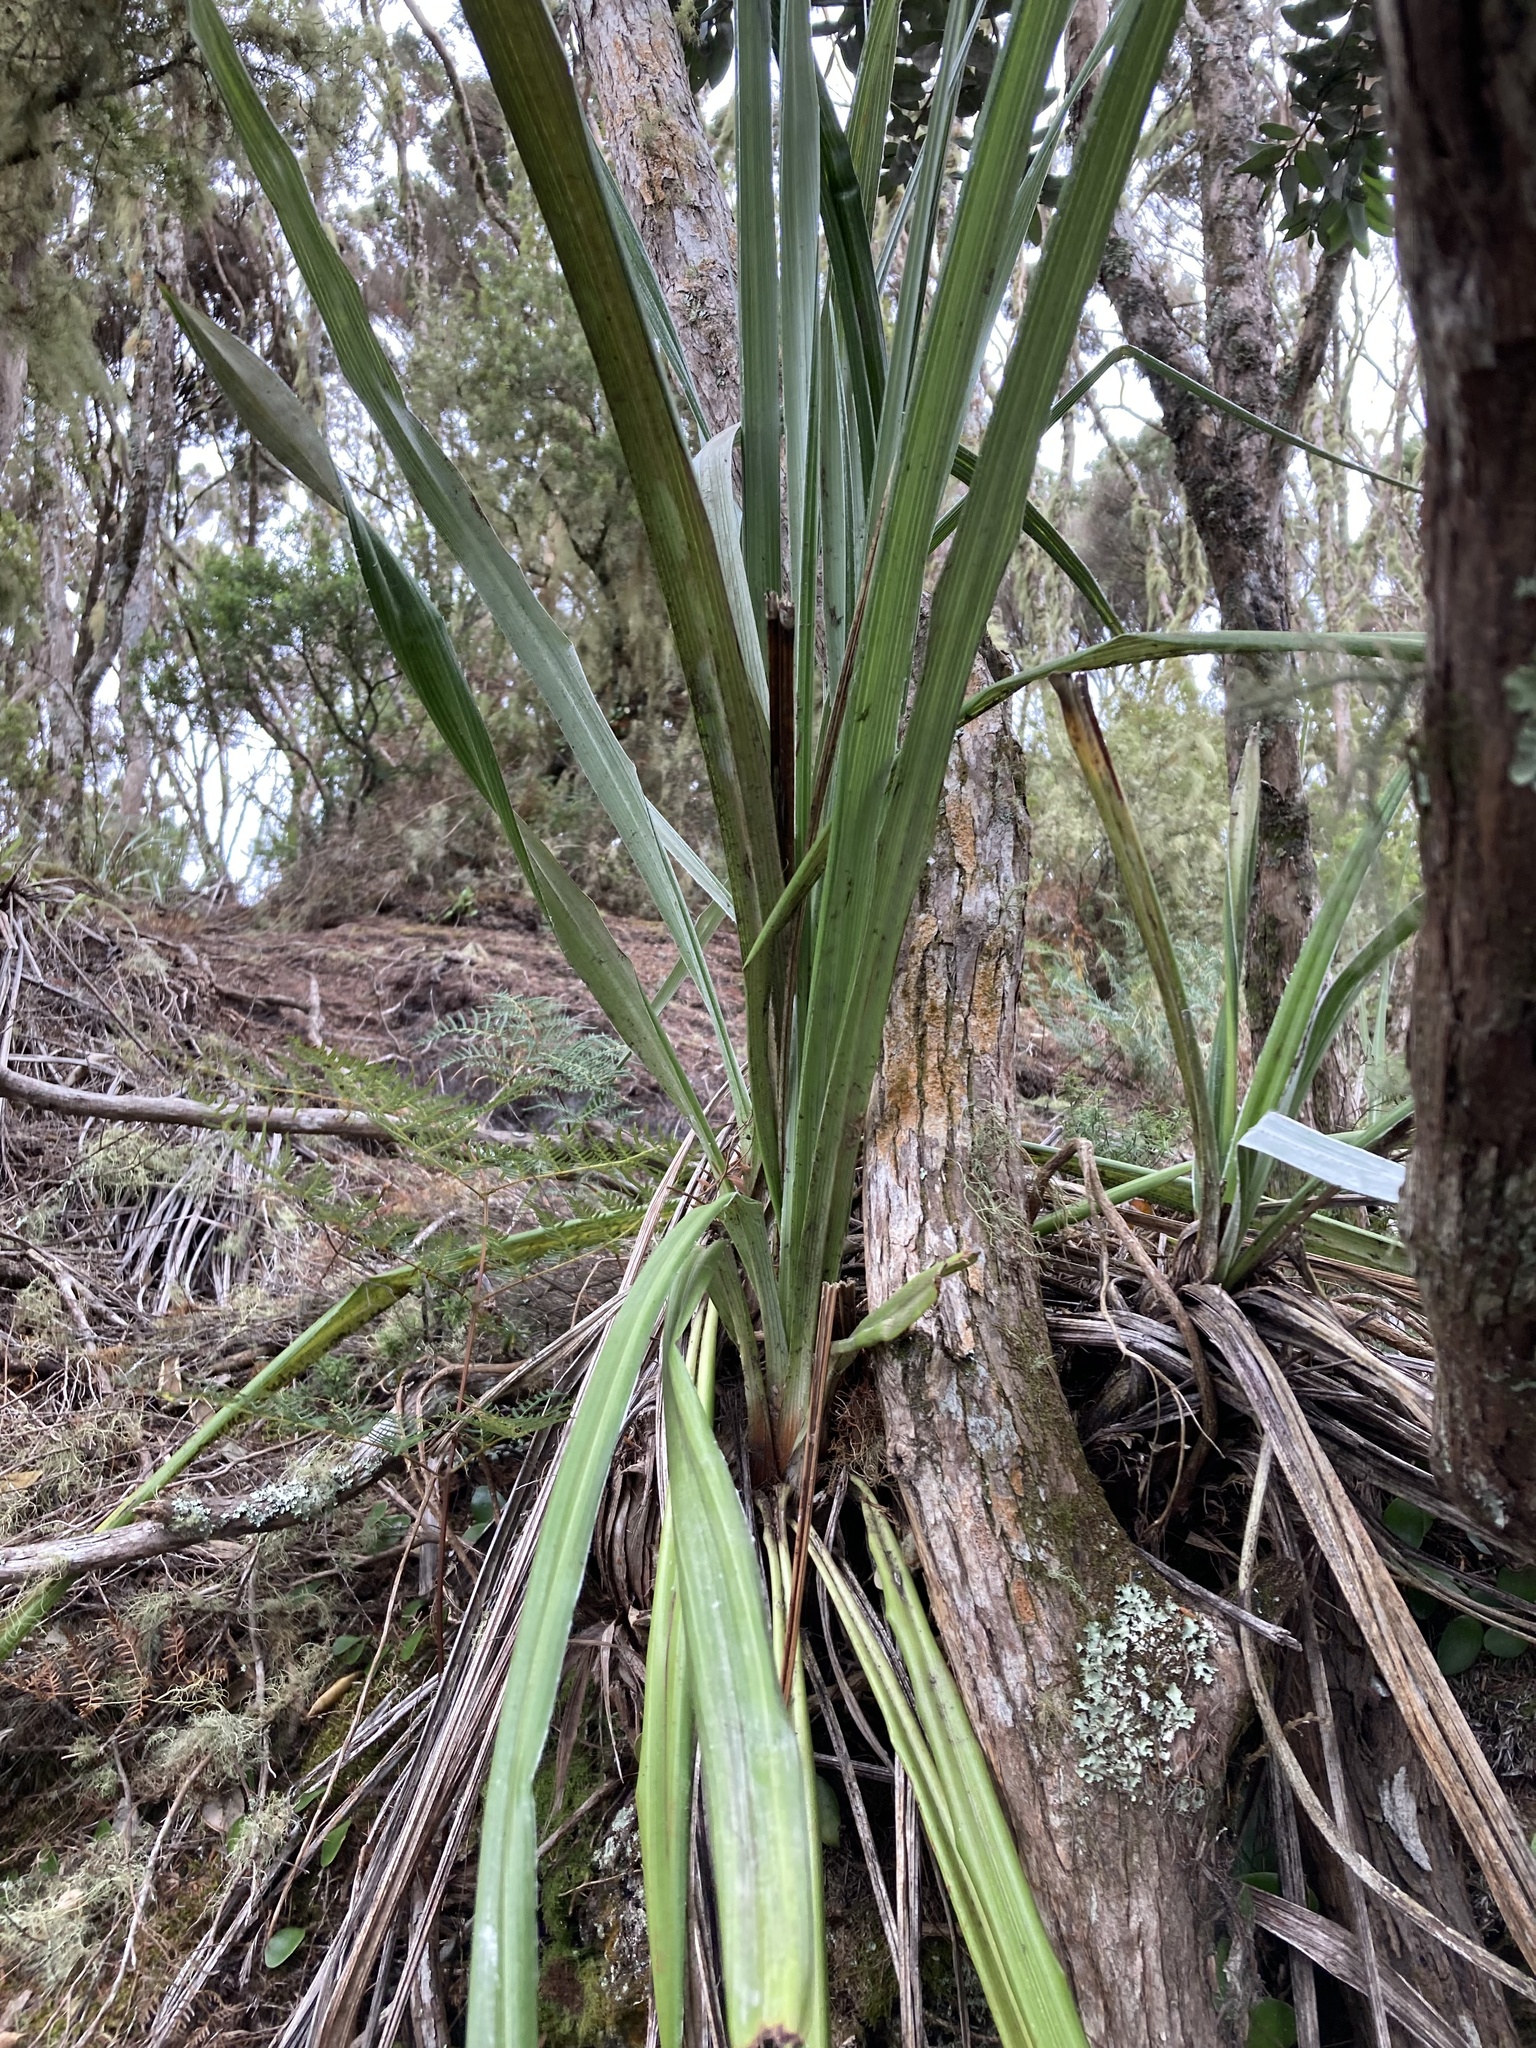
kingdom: Plantae
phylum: Tracheophyta
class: Liliopsida
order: Asparagales
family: Asteliaceae
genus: Astelia
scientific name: Astelia banksii
